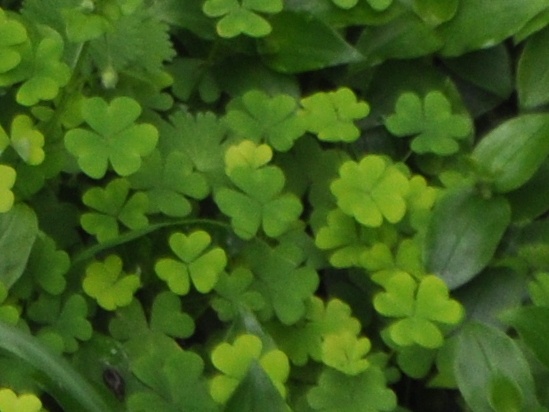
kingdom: Plantae
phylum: Tracheophyta
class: Magnoliopsida
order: Oxalidales
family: Oxalidaceae
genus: Oxalis
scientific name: Oxalis incarnata
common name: Pale pink-sorrel
